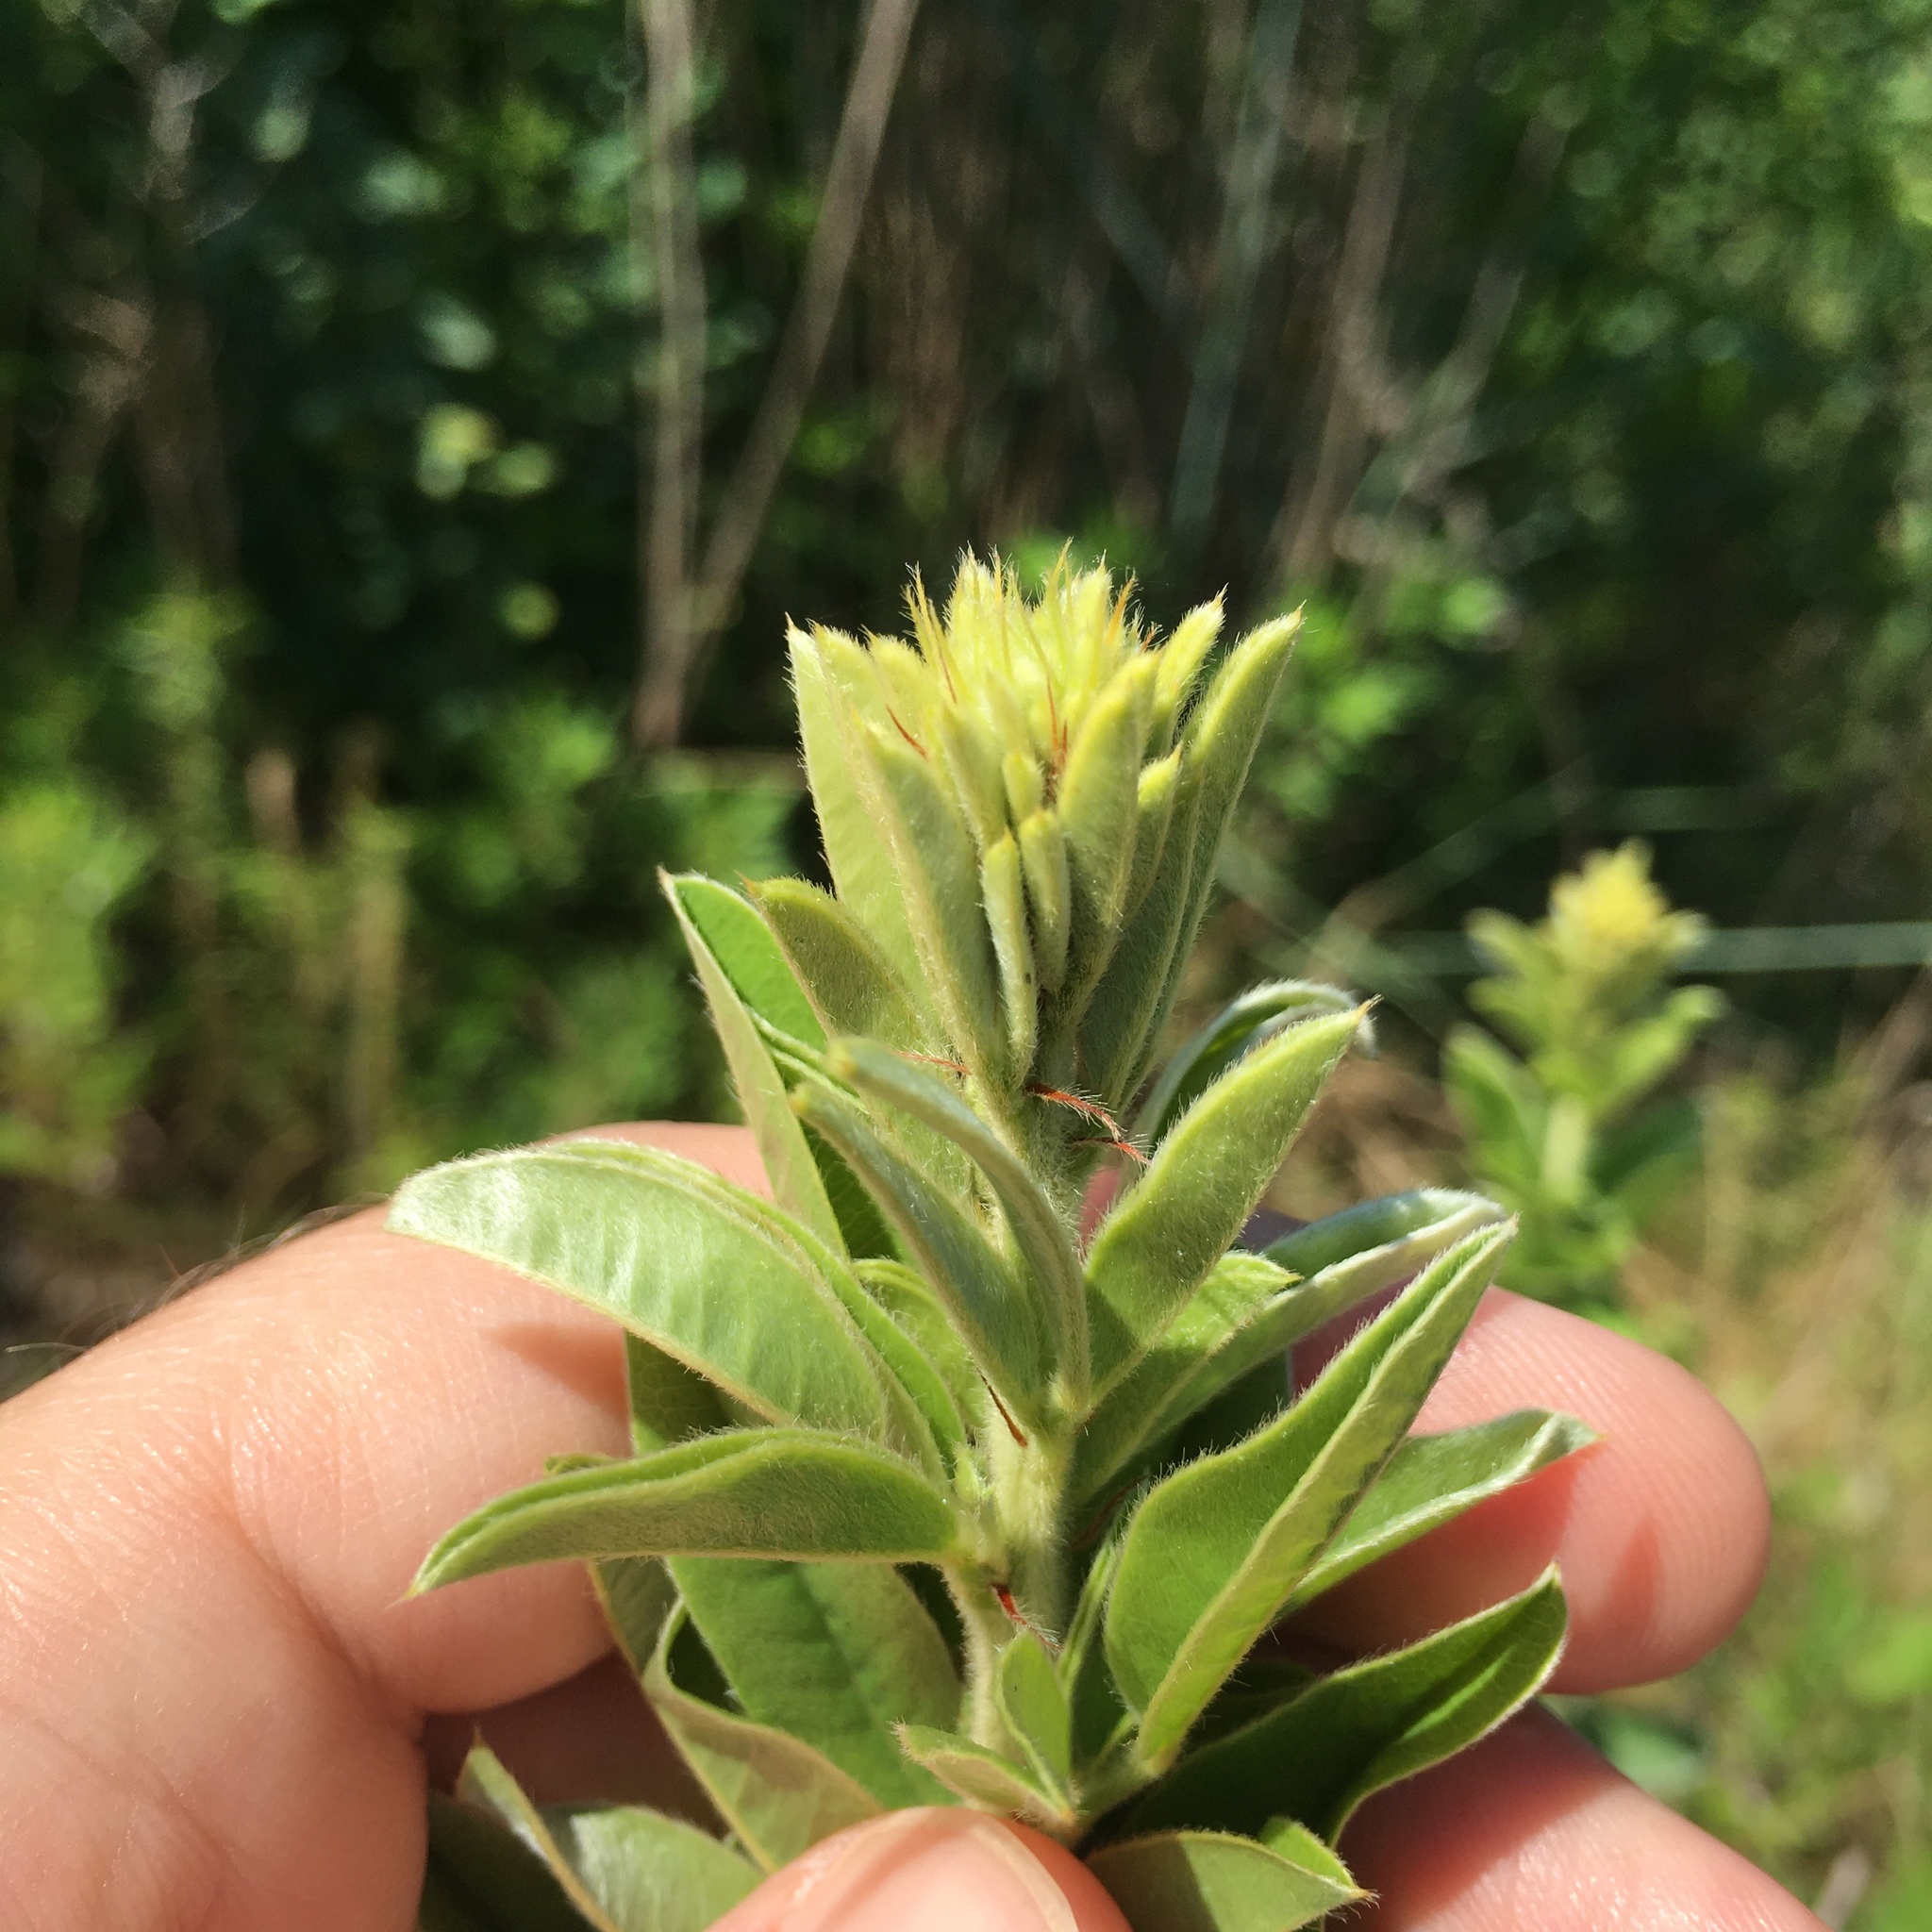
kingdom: Plantae
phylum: Tracheophyta
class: Magnoliopsida
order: Fabales
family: Fabaceae
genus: Lespedeza
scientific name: Lespedeza capitata
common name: Dusty clover
